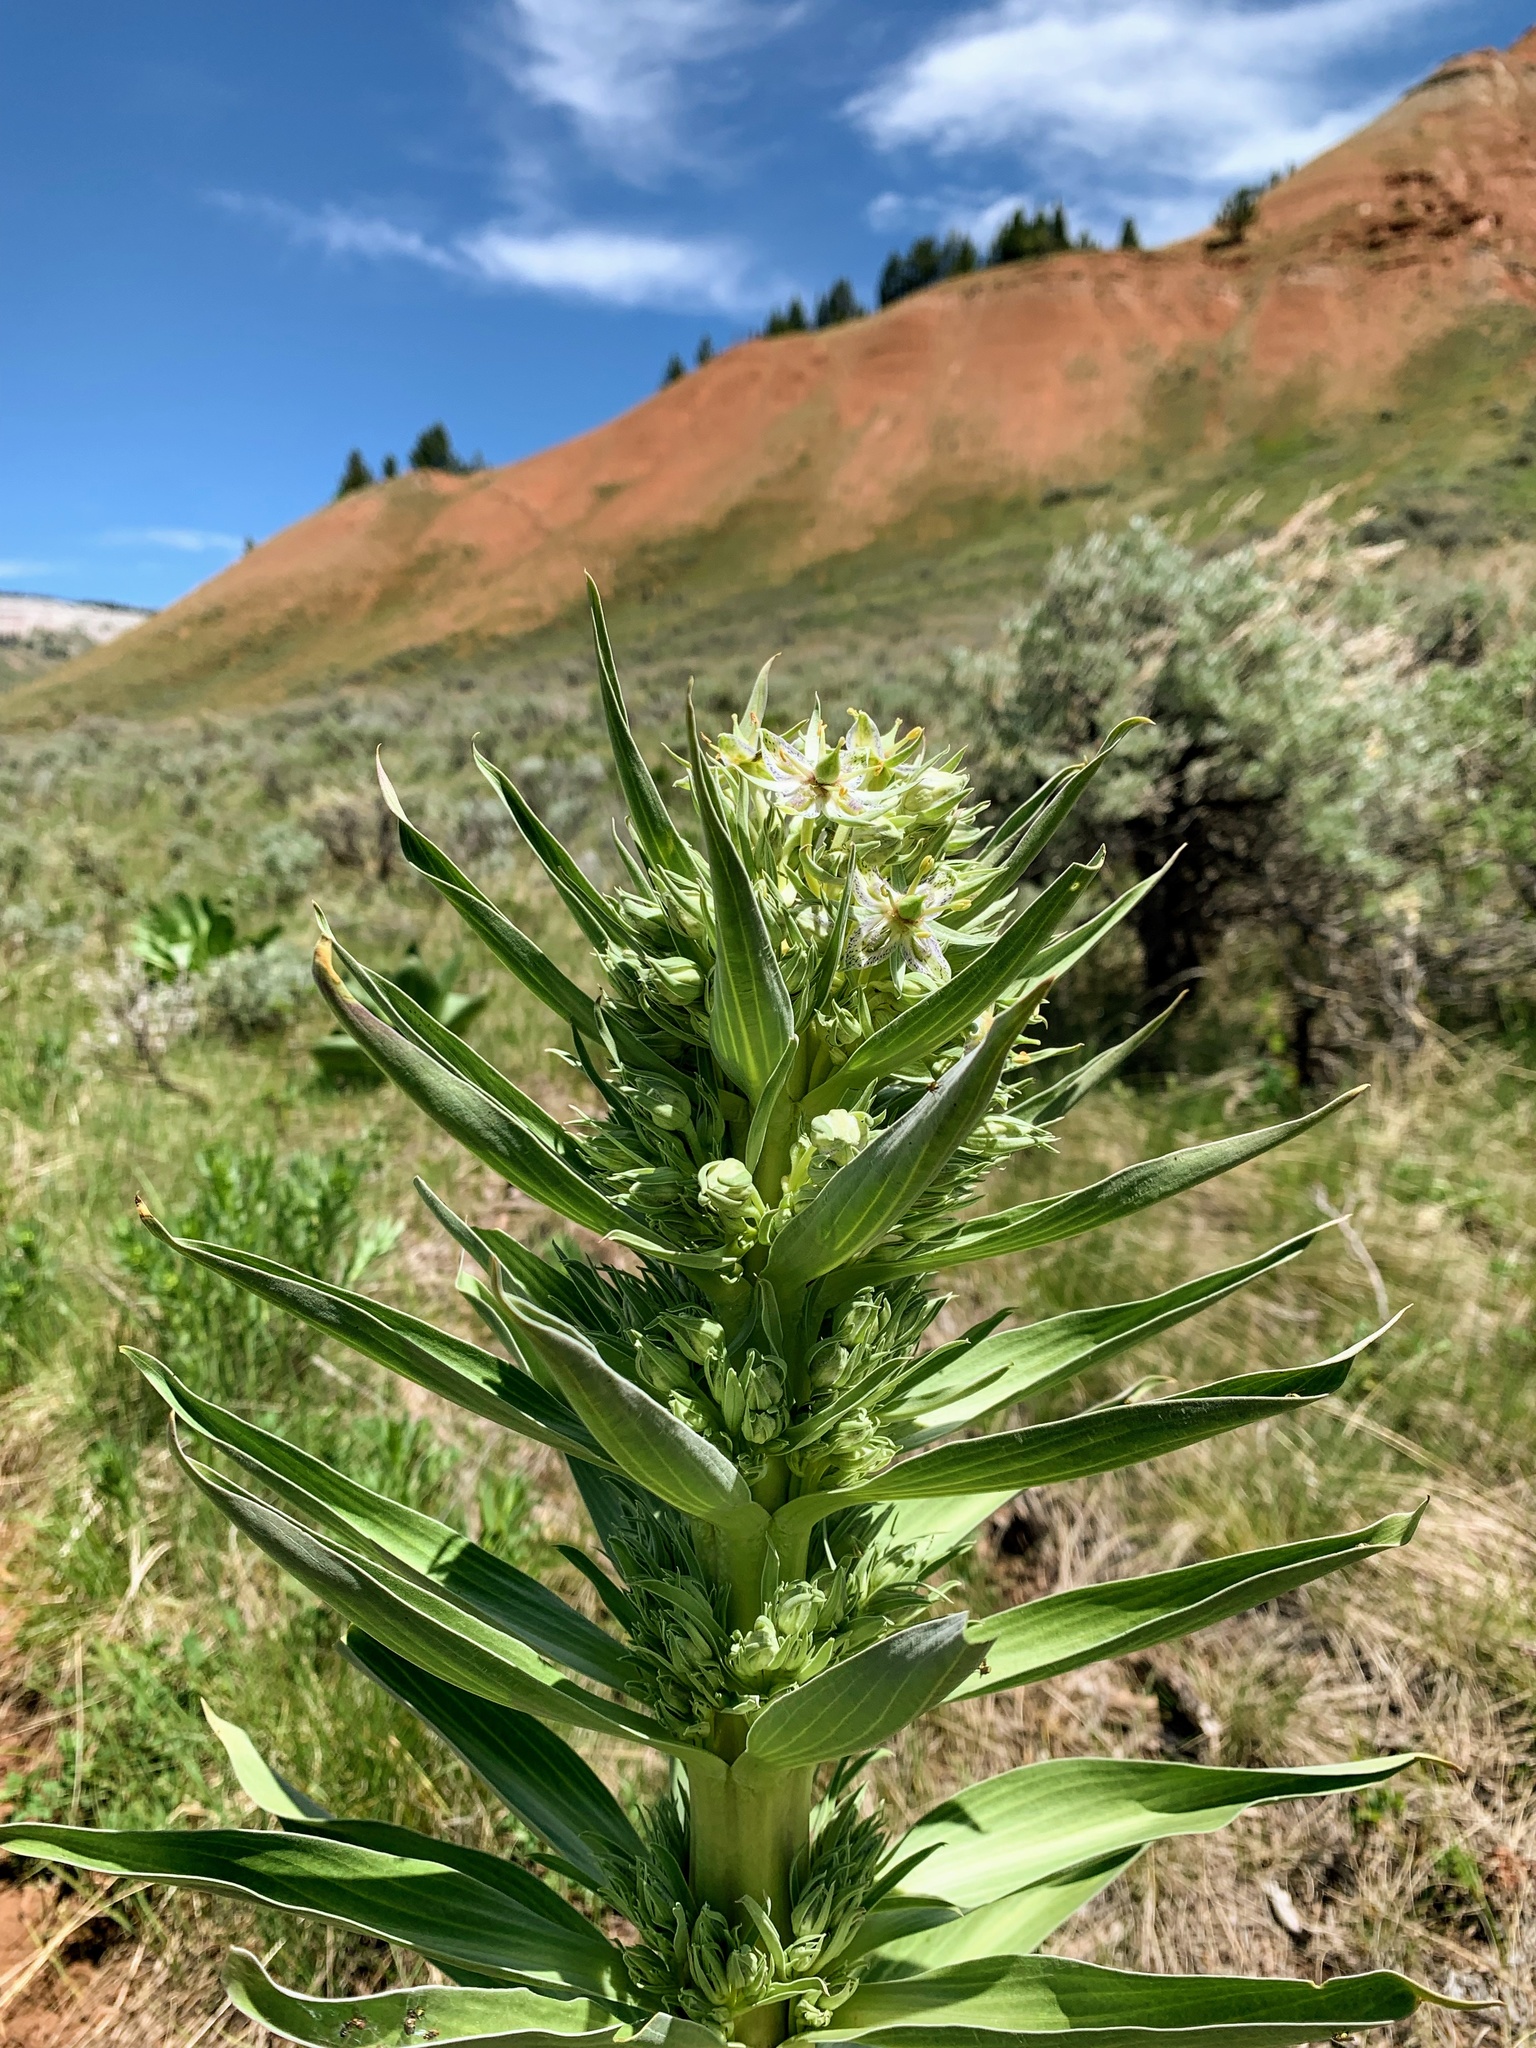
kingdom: Plantae
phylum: Tracheophyta
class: Magnoliopsida
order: Gentianales
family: Gentianaceae
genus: Frasera
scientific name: Frasera speciosa
